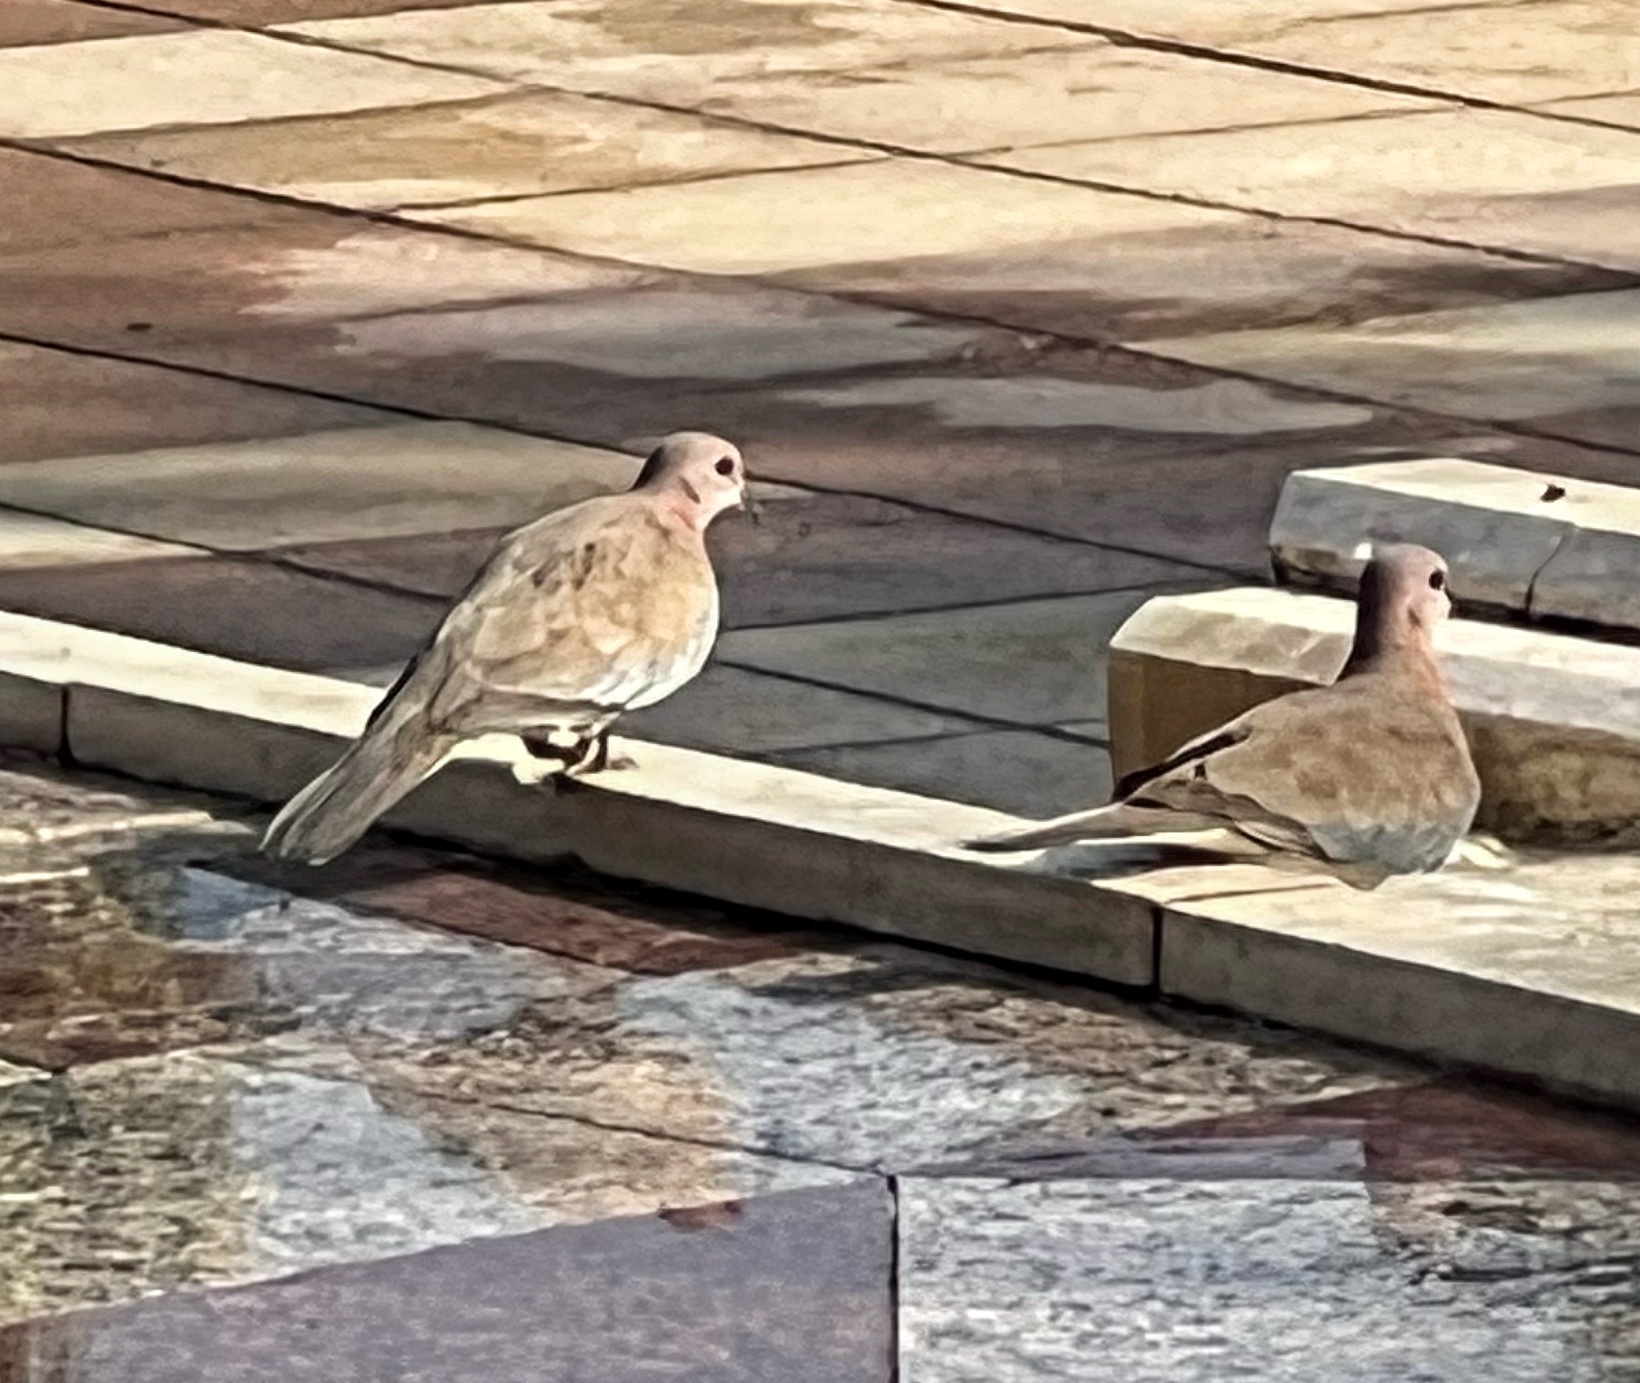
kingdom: Animalia
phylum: Chordata
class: Aves
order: Columbiformes
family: Columbidae
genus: Spilopelia
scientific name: Spilopelia senegalensis
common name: Laughing dove
